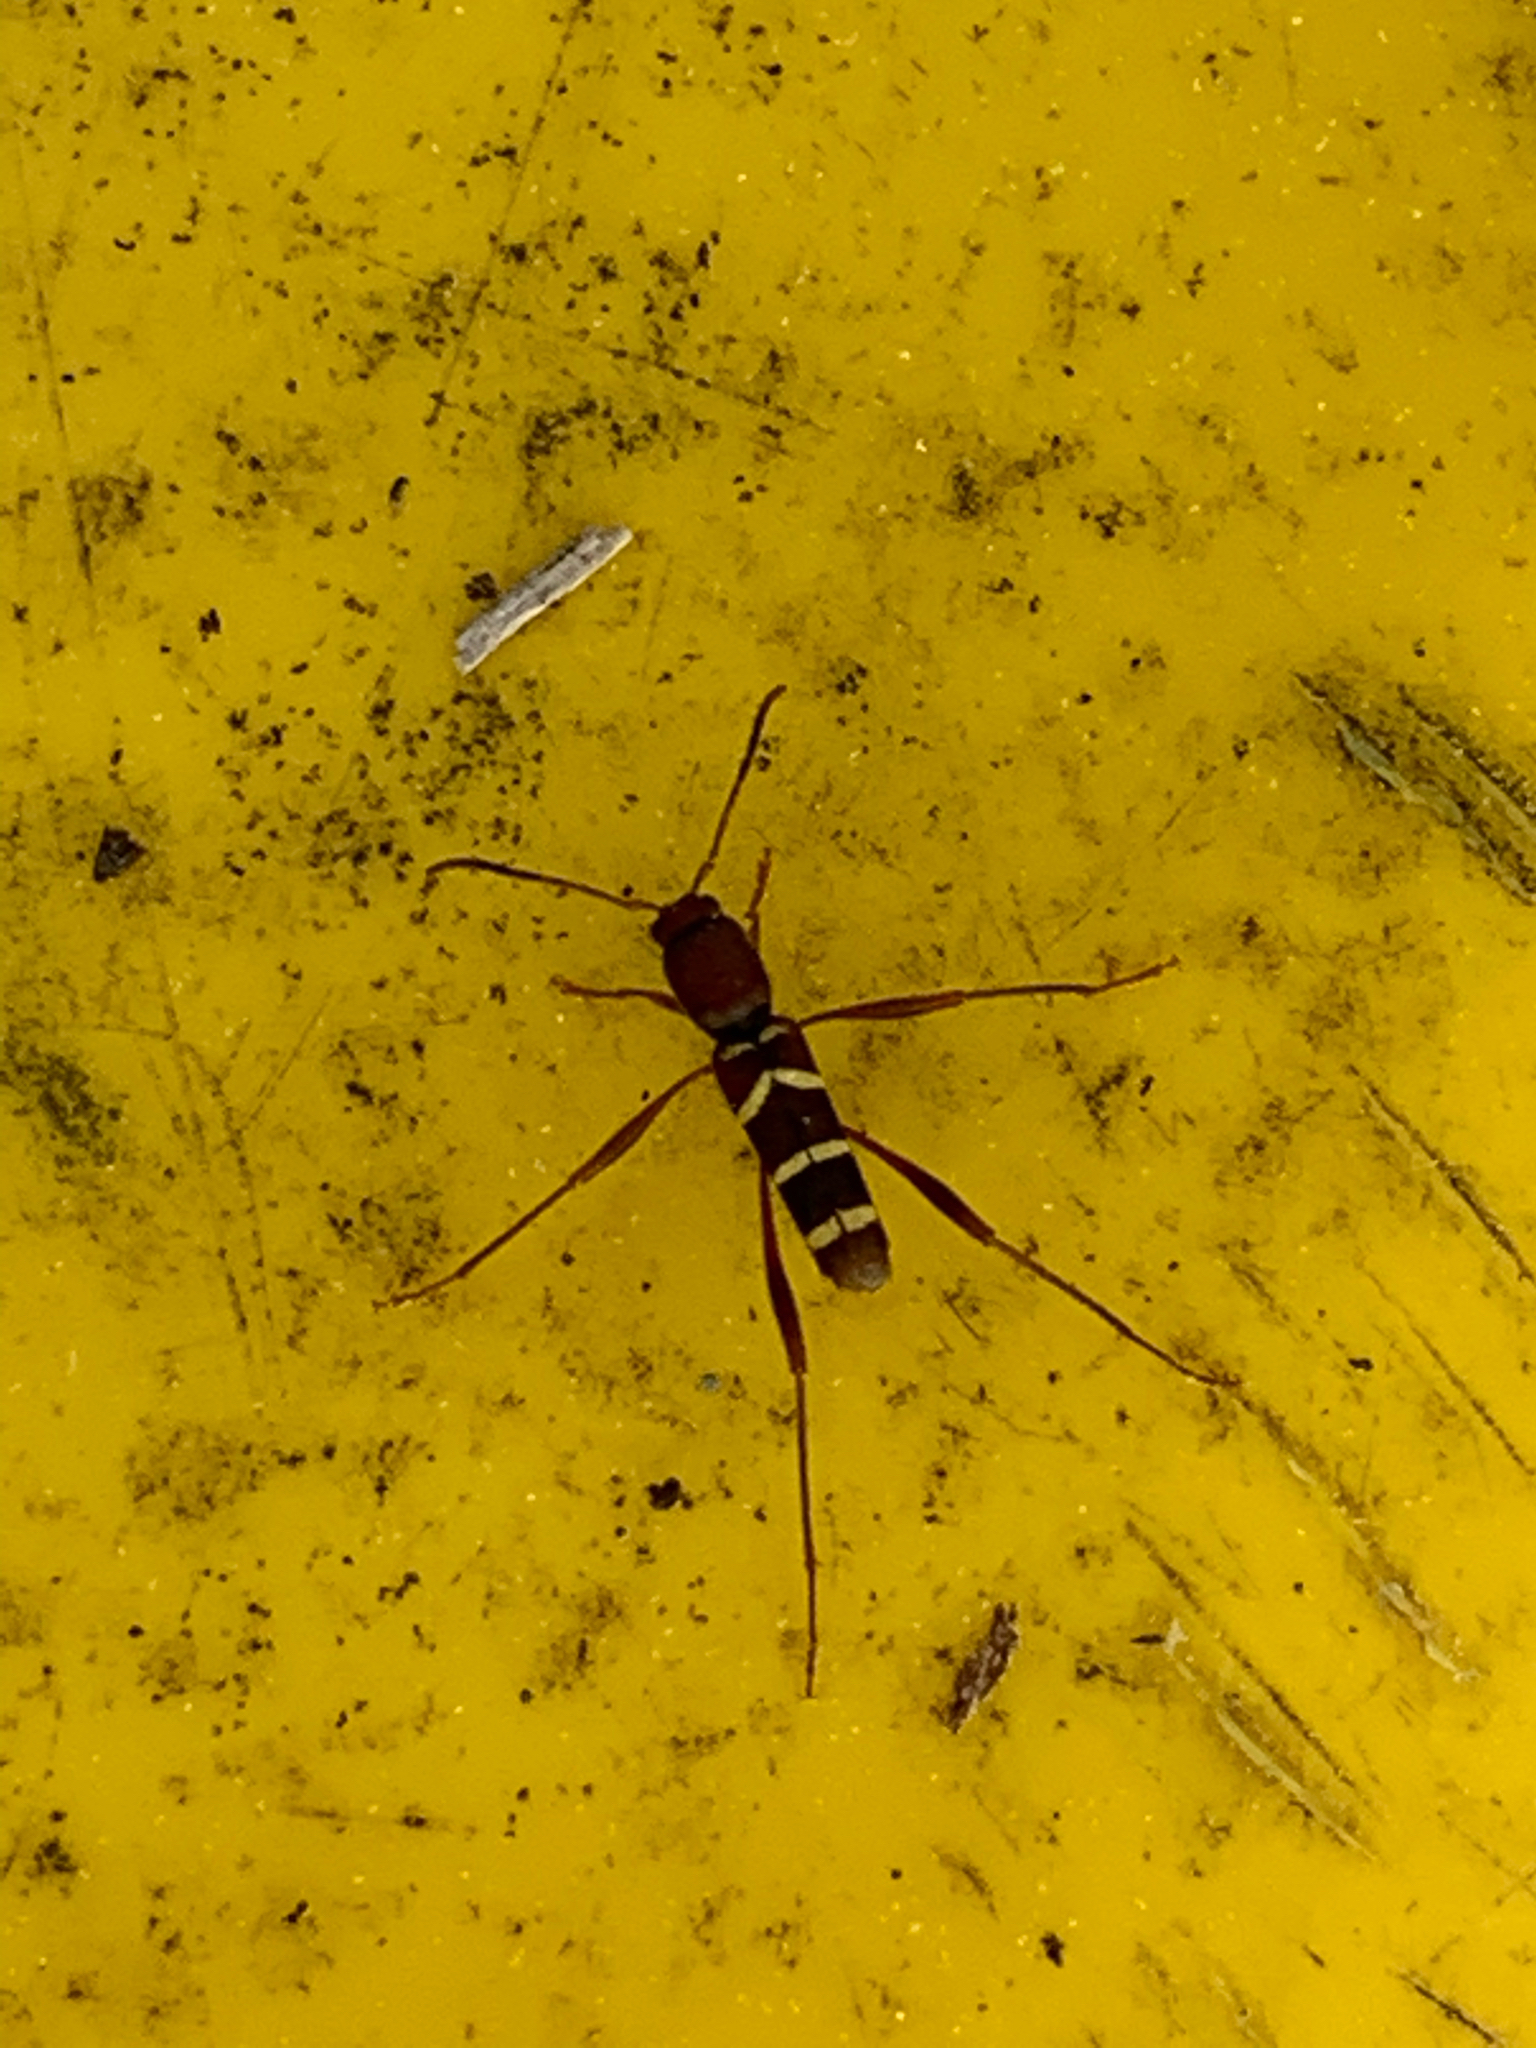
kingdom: Animalia
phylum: Arthropoda
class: Insecta
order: Coleoptera
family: Cerambycidae
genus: Neoclytus
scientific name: Neoclytus acuminatus
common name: Read-headed ash borer
